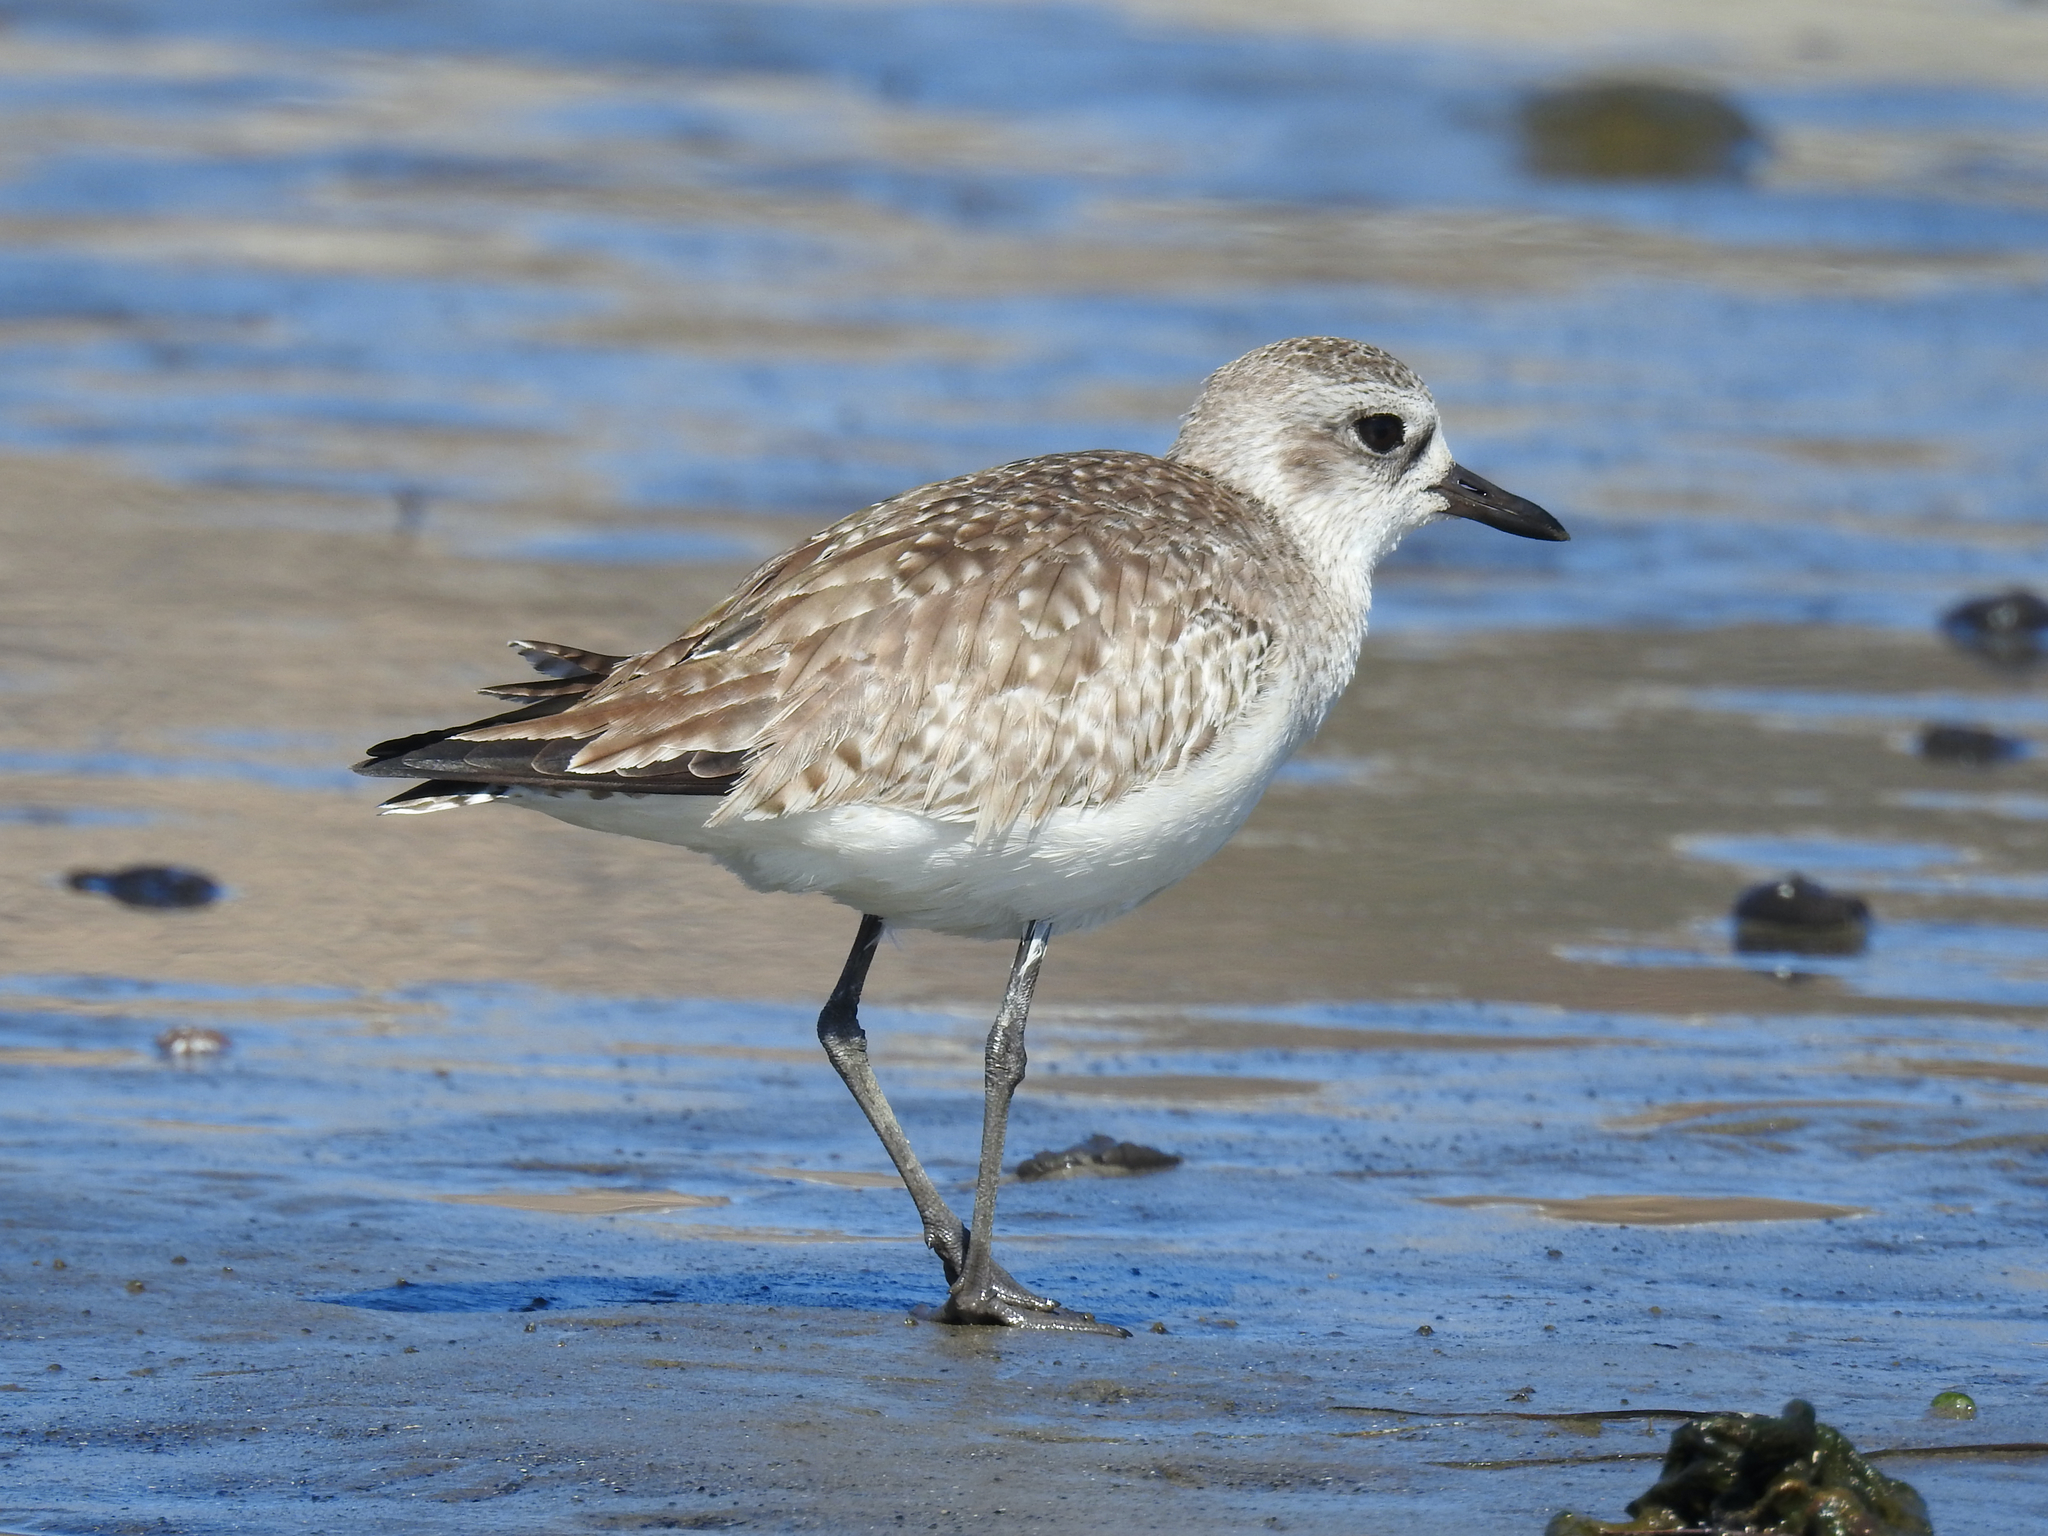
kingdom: Animalia
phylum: Chordata
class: Aves
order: Charadriiformes
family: Charadriidae
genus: Pluvialis
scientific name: Pluvialis squatarola
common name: Grey plover
